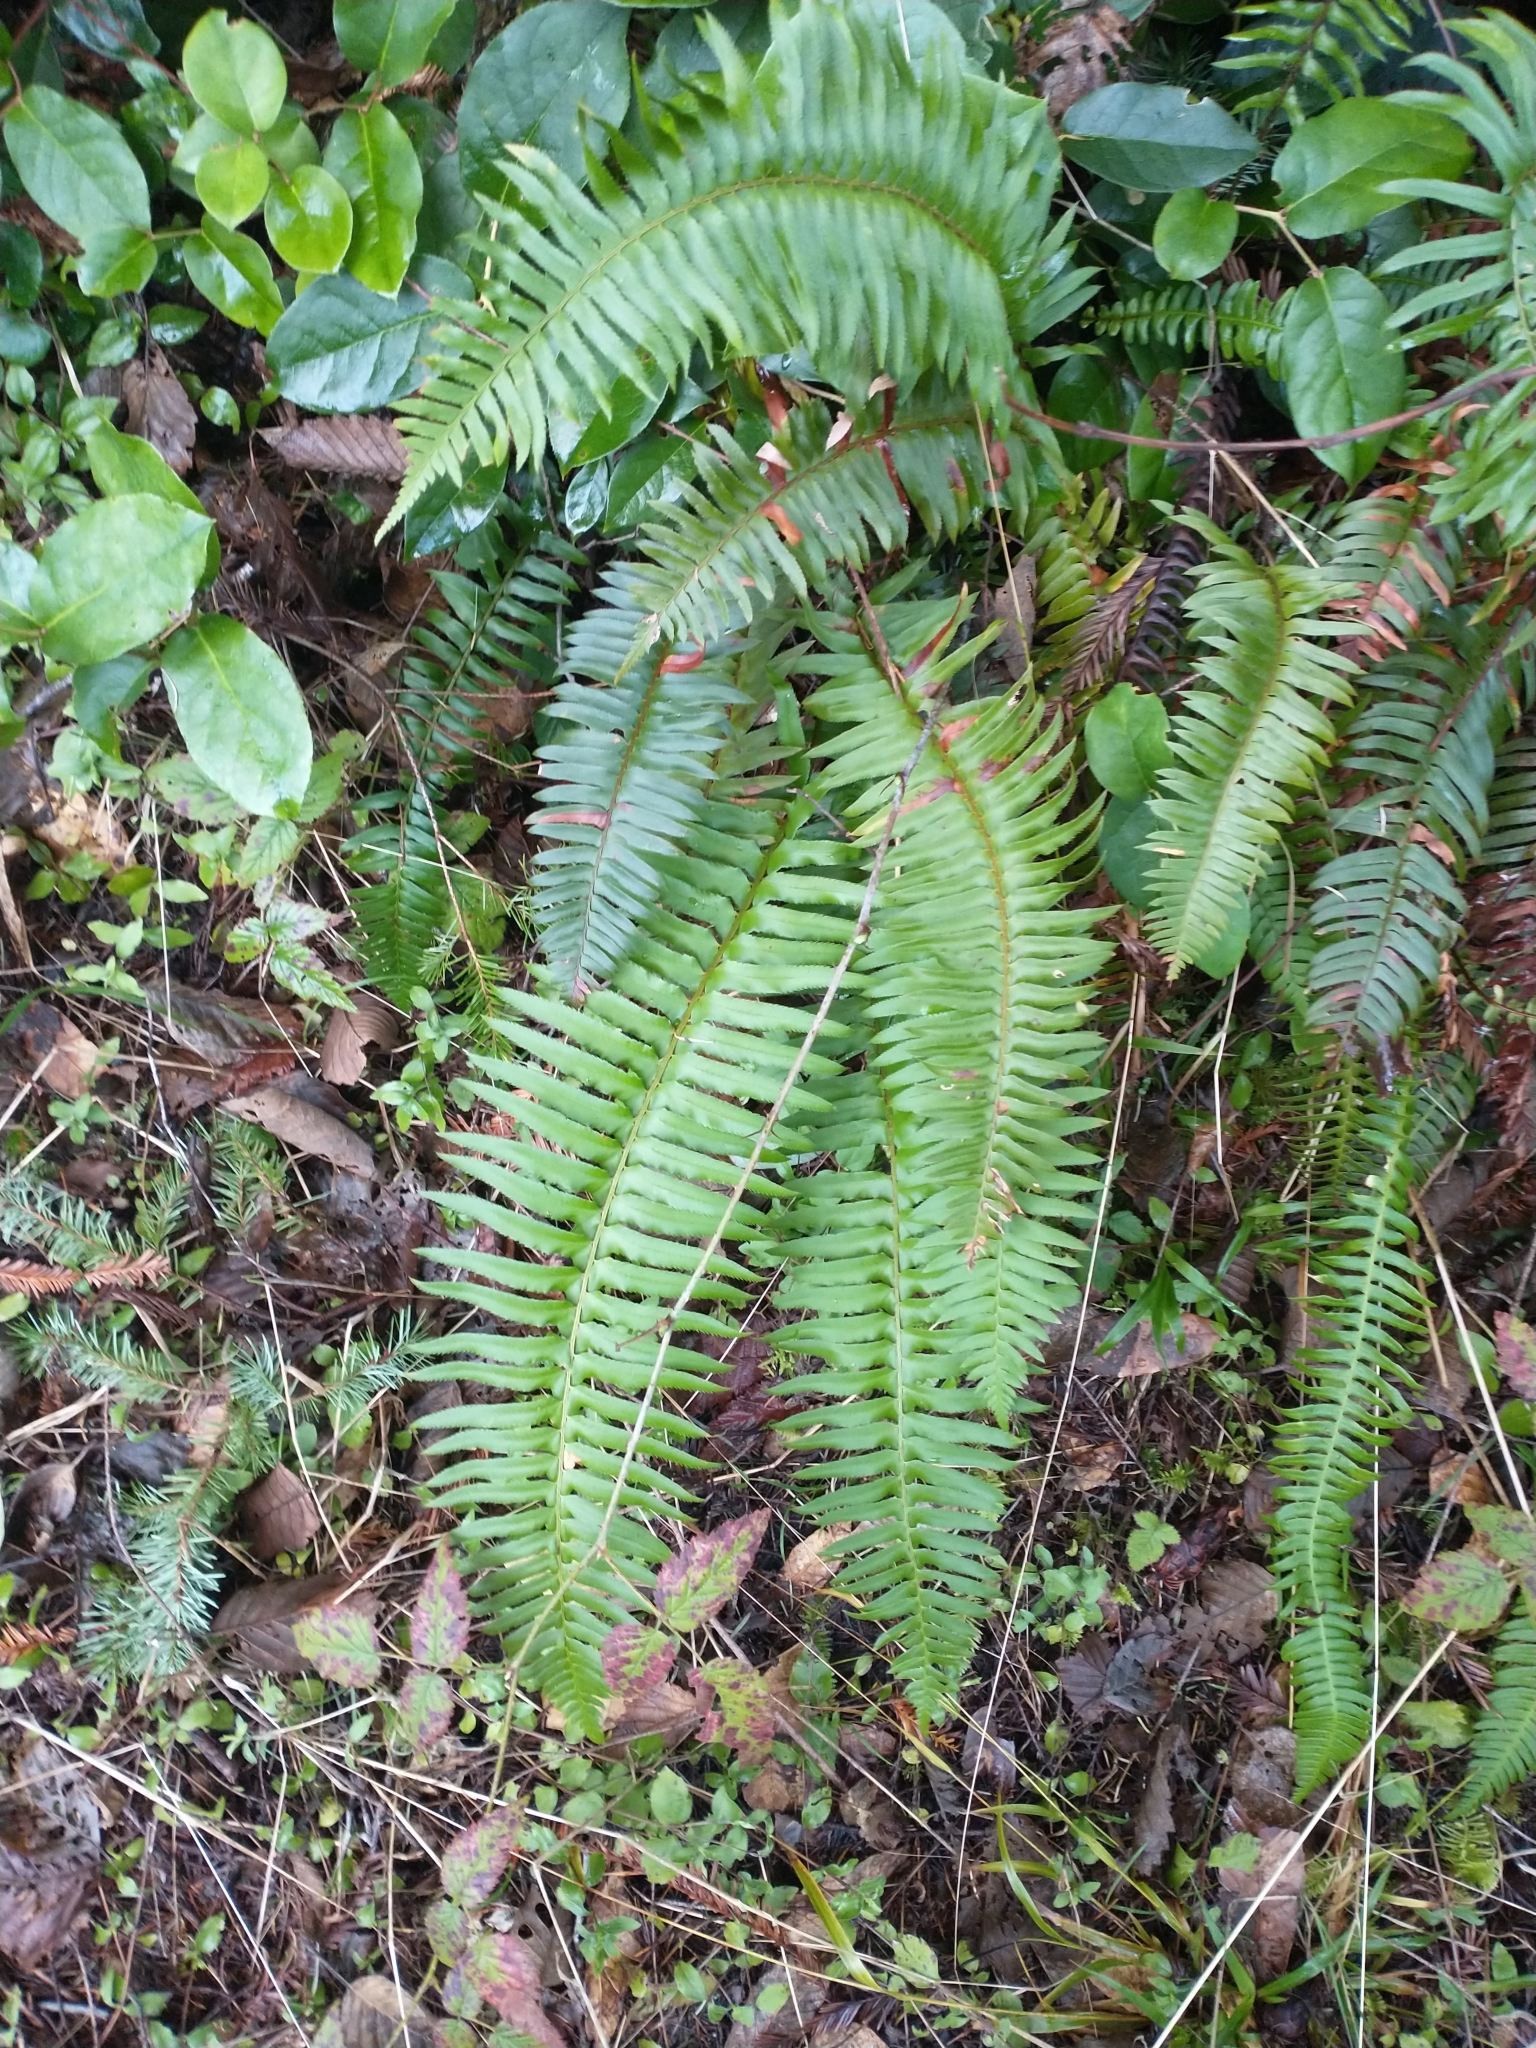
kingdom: Plantae
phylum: Tracheophyta
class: Polypodiopsida
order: Polypodiales
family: Dryopteridaceae
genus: Polystichum
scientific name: Polystichum munitum
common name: Western sword-fern
